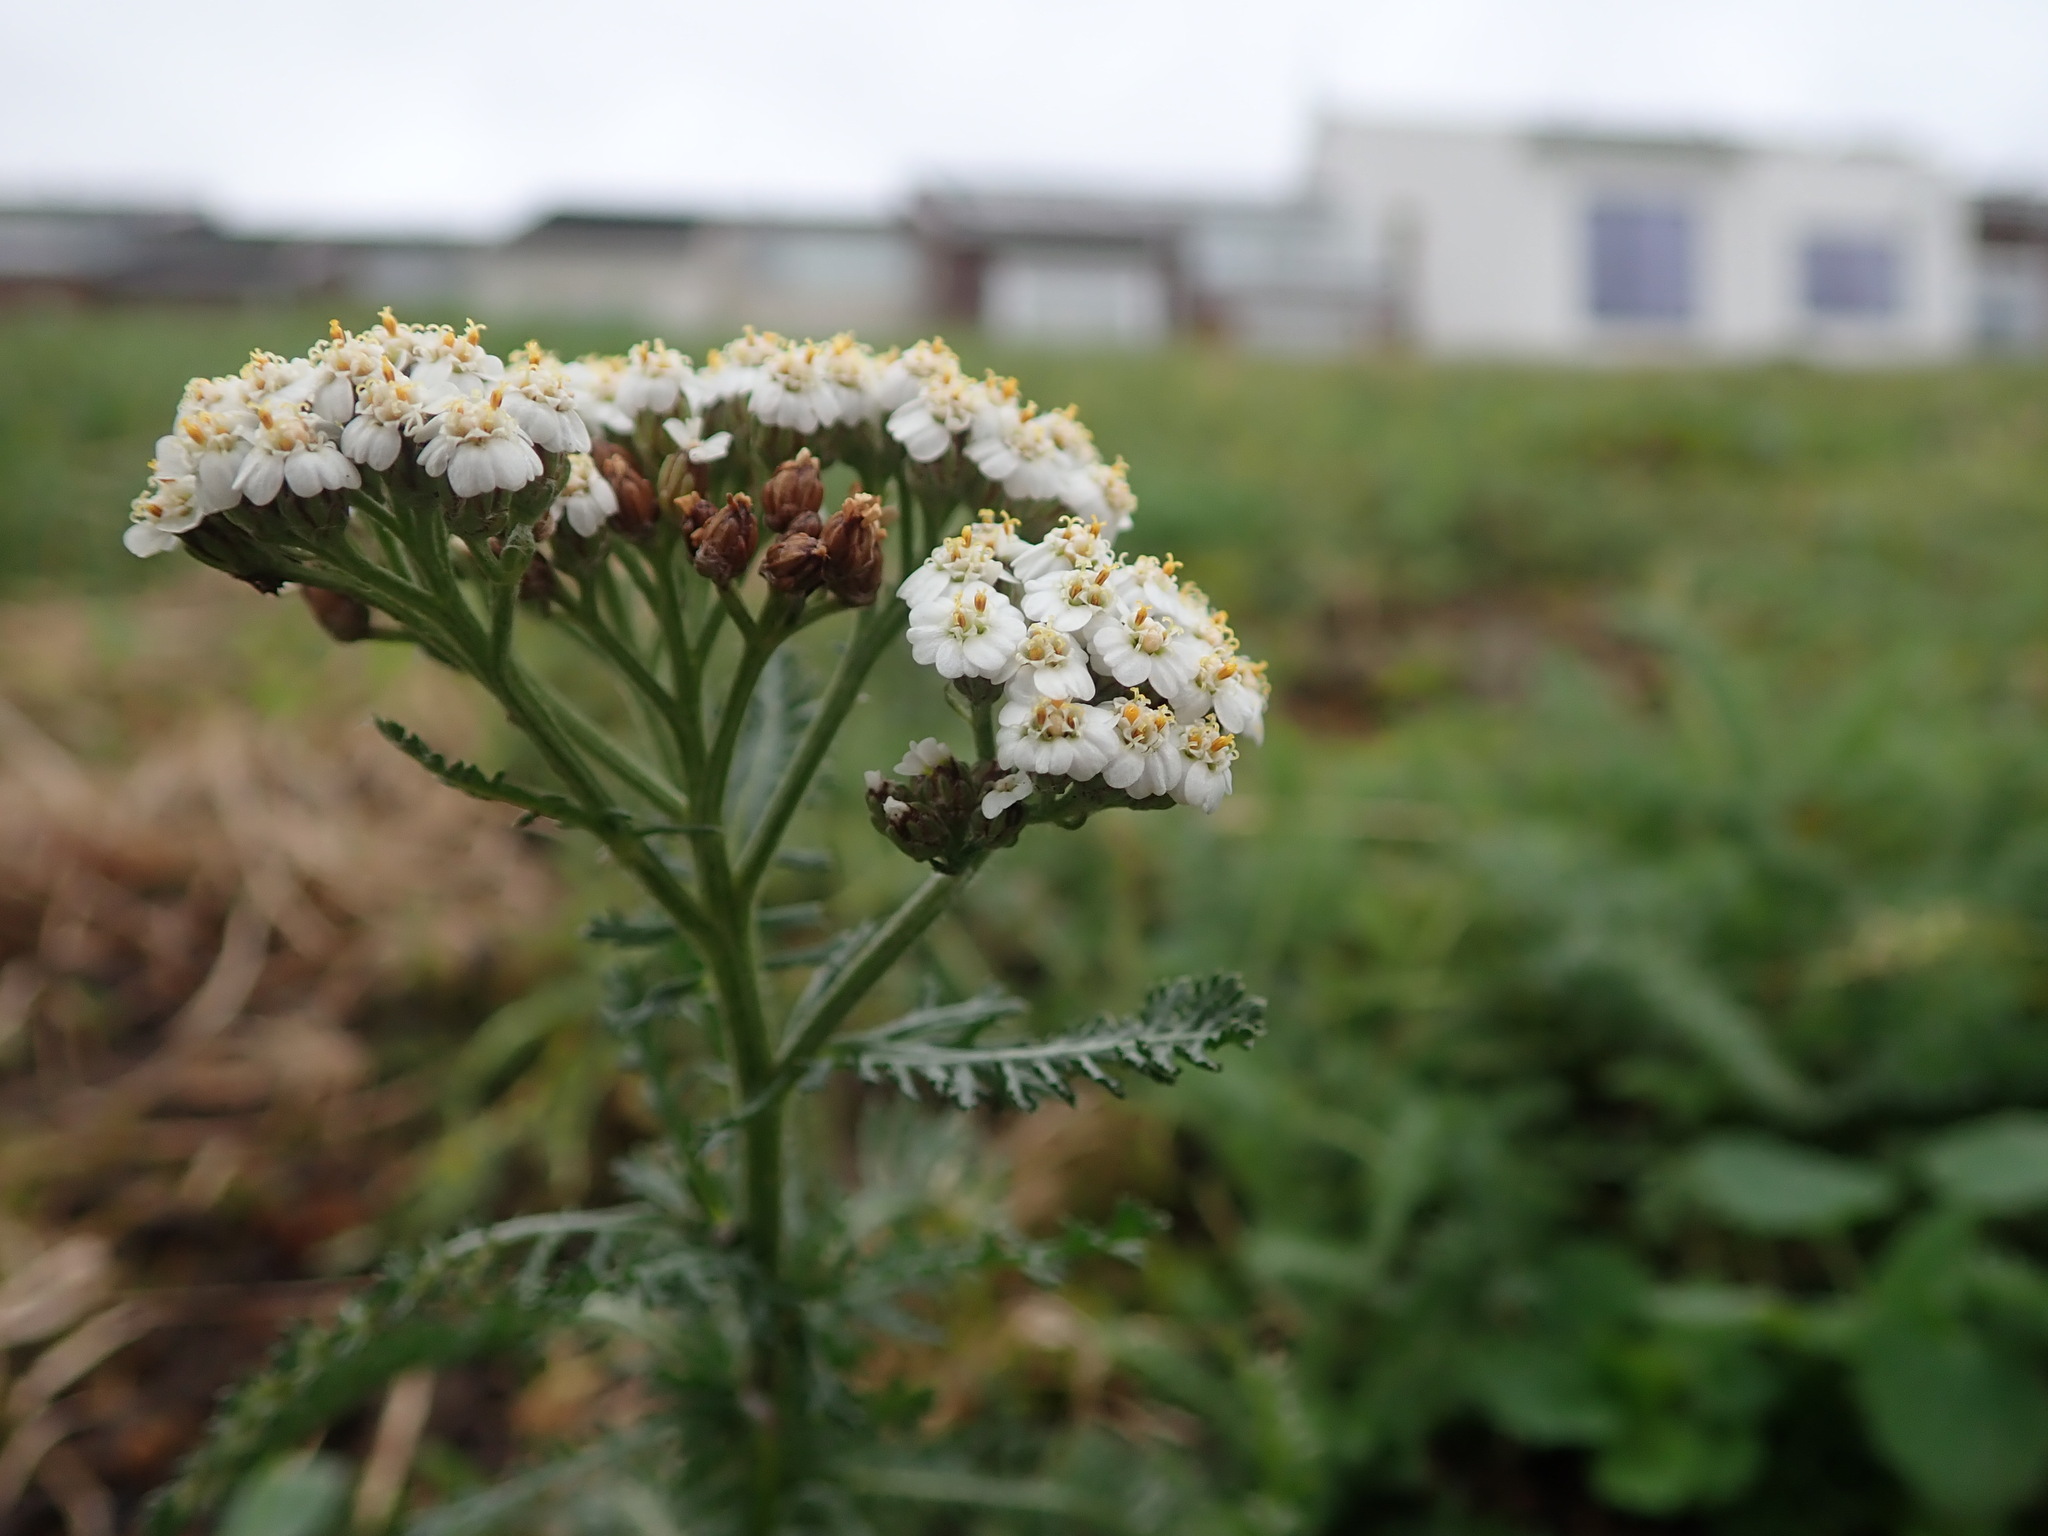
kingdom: Plantae
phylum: Tracheophyta
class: Magnoliopsida
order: Asterales
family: Asteraceae
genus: Achillea
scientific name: Achillea millefolium
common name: Yarrow
